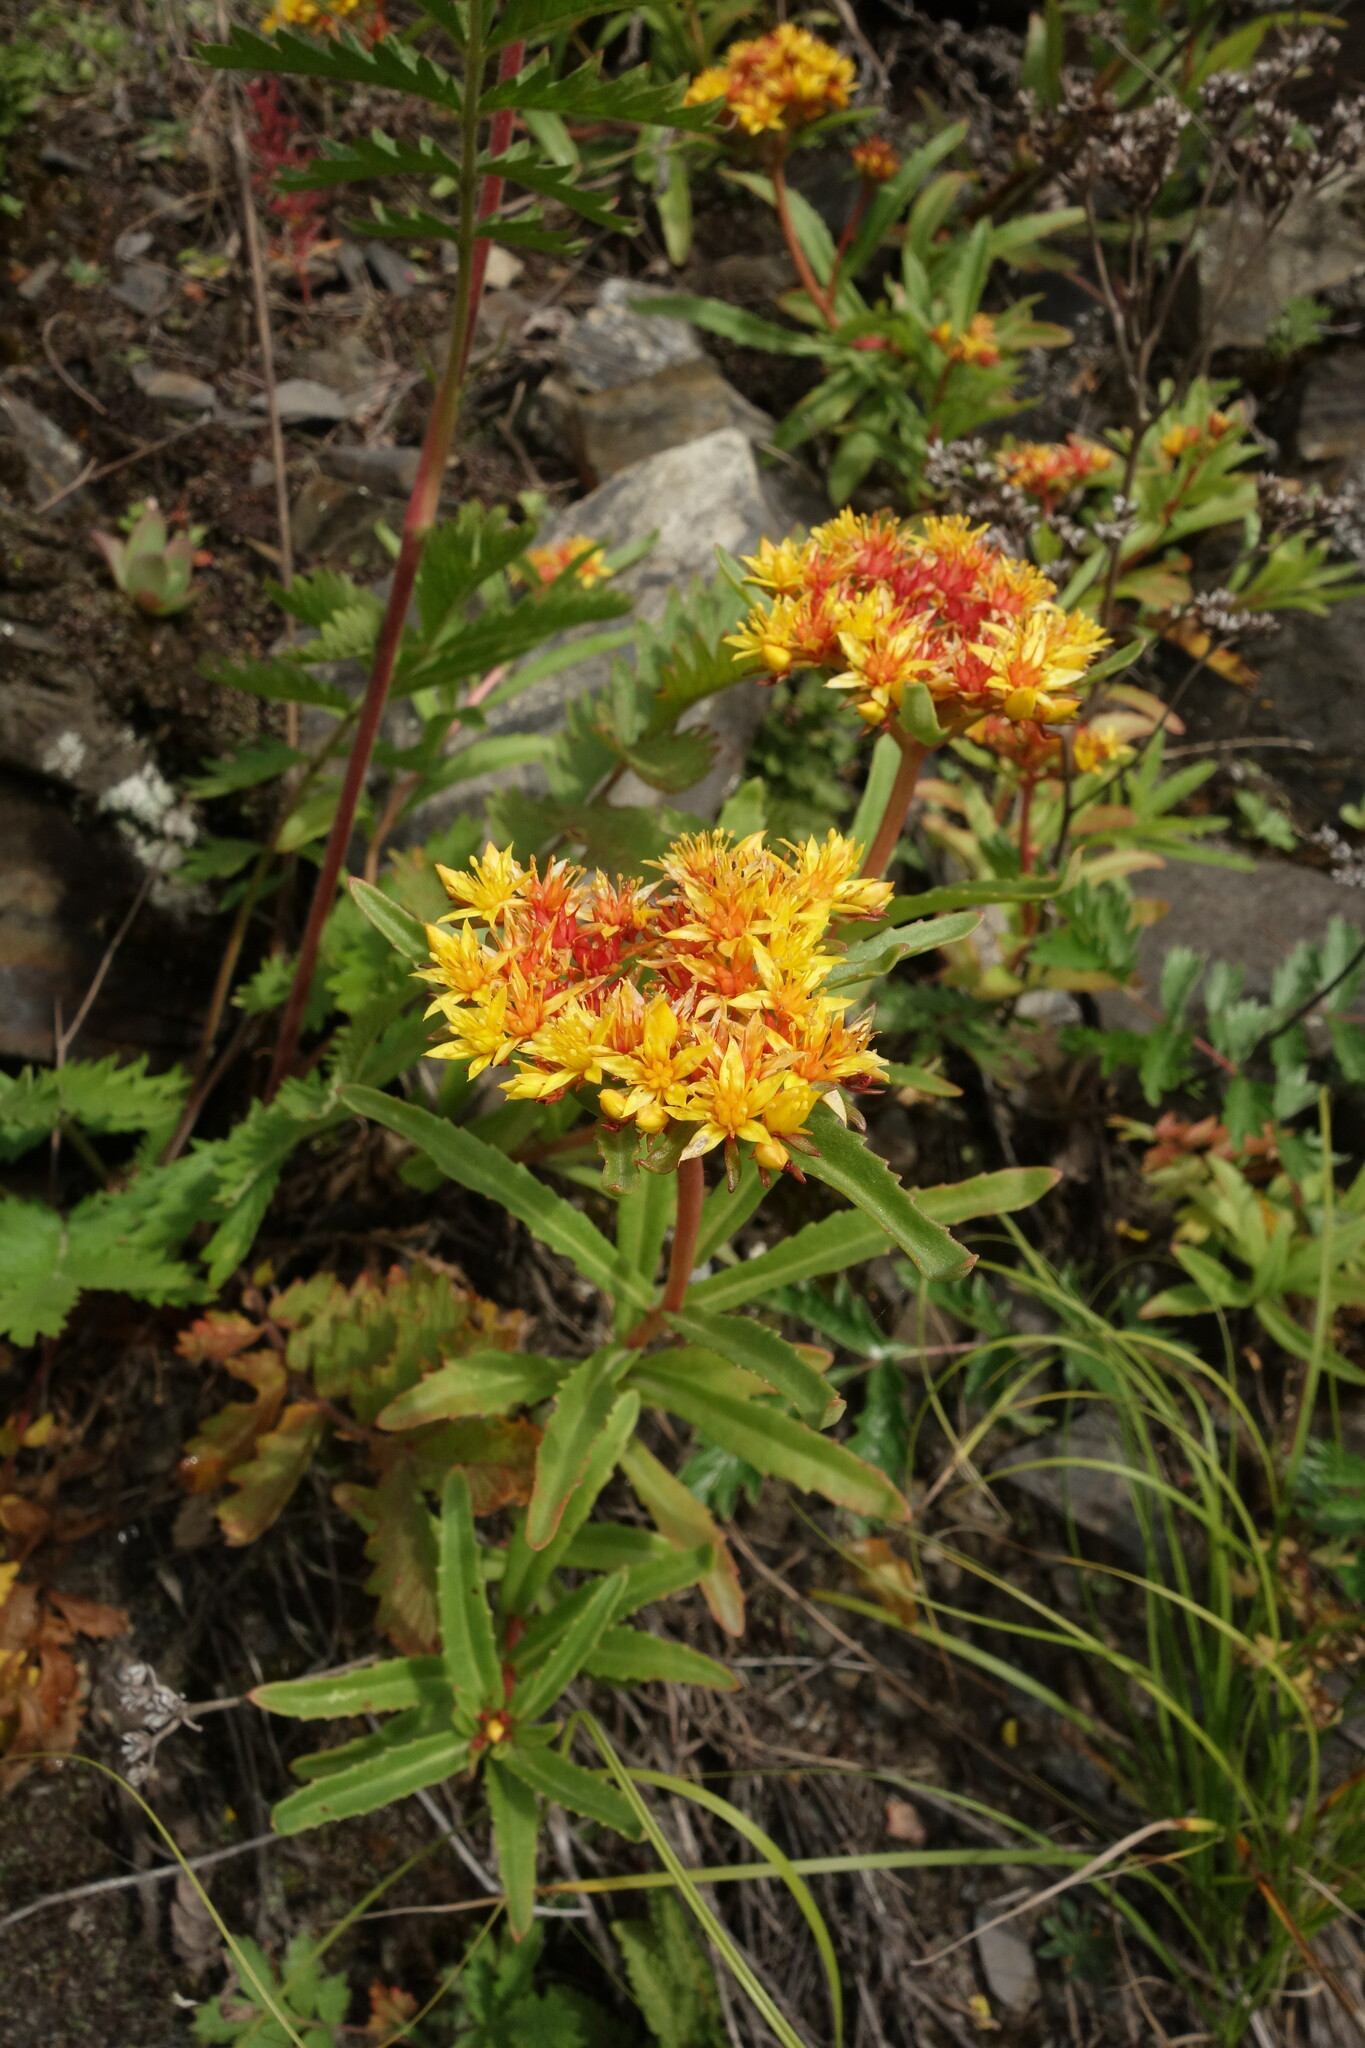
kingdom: Plantae
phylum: Tracheophyta
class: Magnoliopsida
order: Saxifragales
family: Crassulaceae
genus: Phedimus
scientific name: Phedimus aizoon
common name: Orpin aizoon
